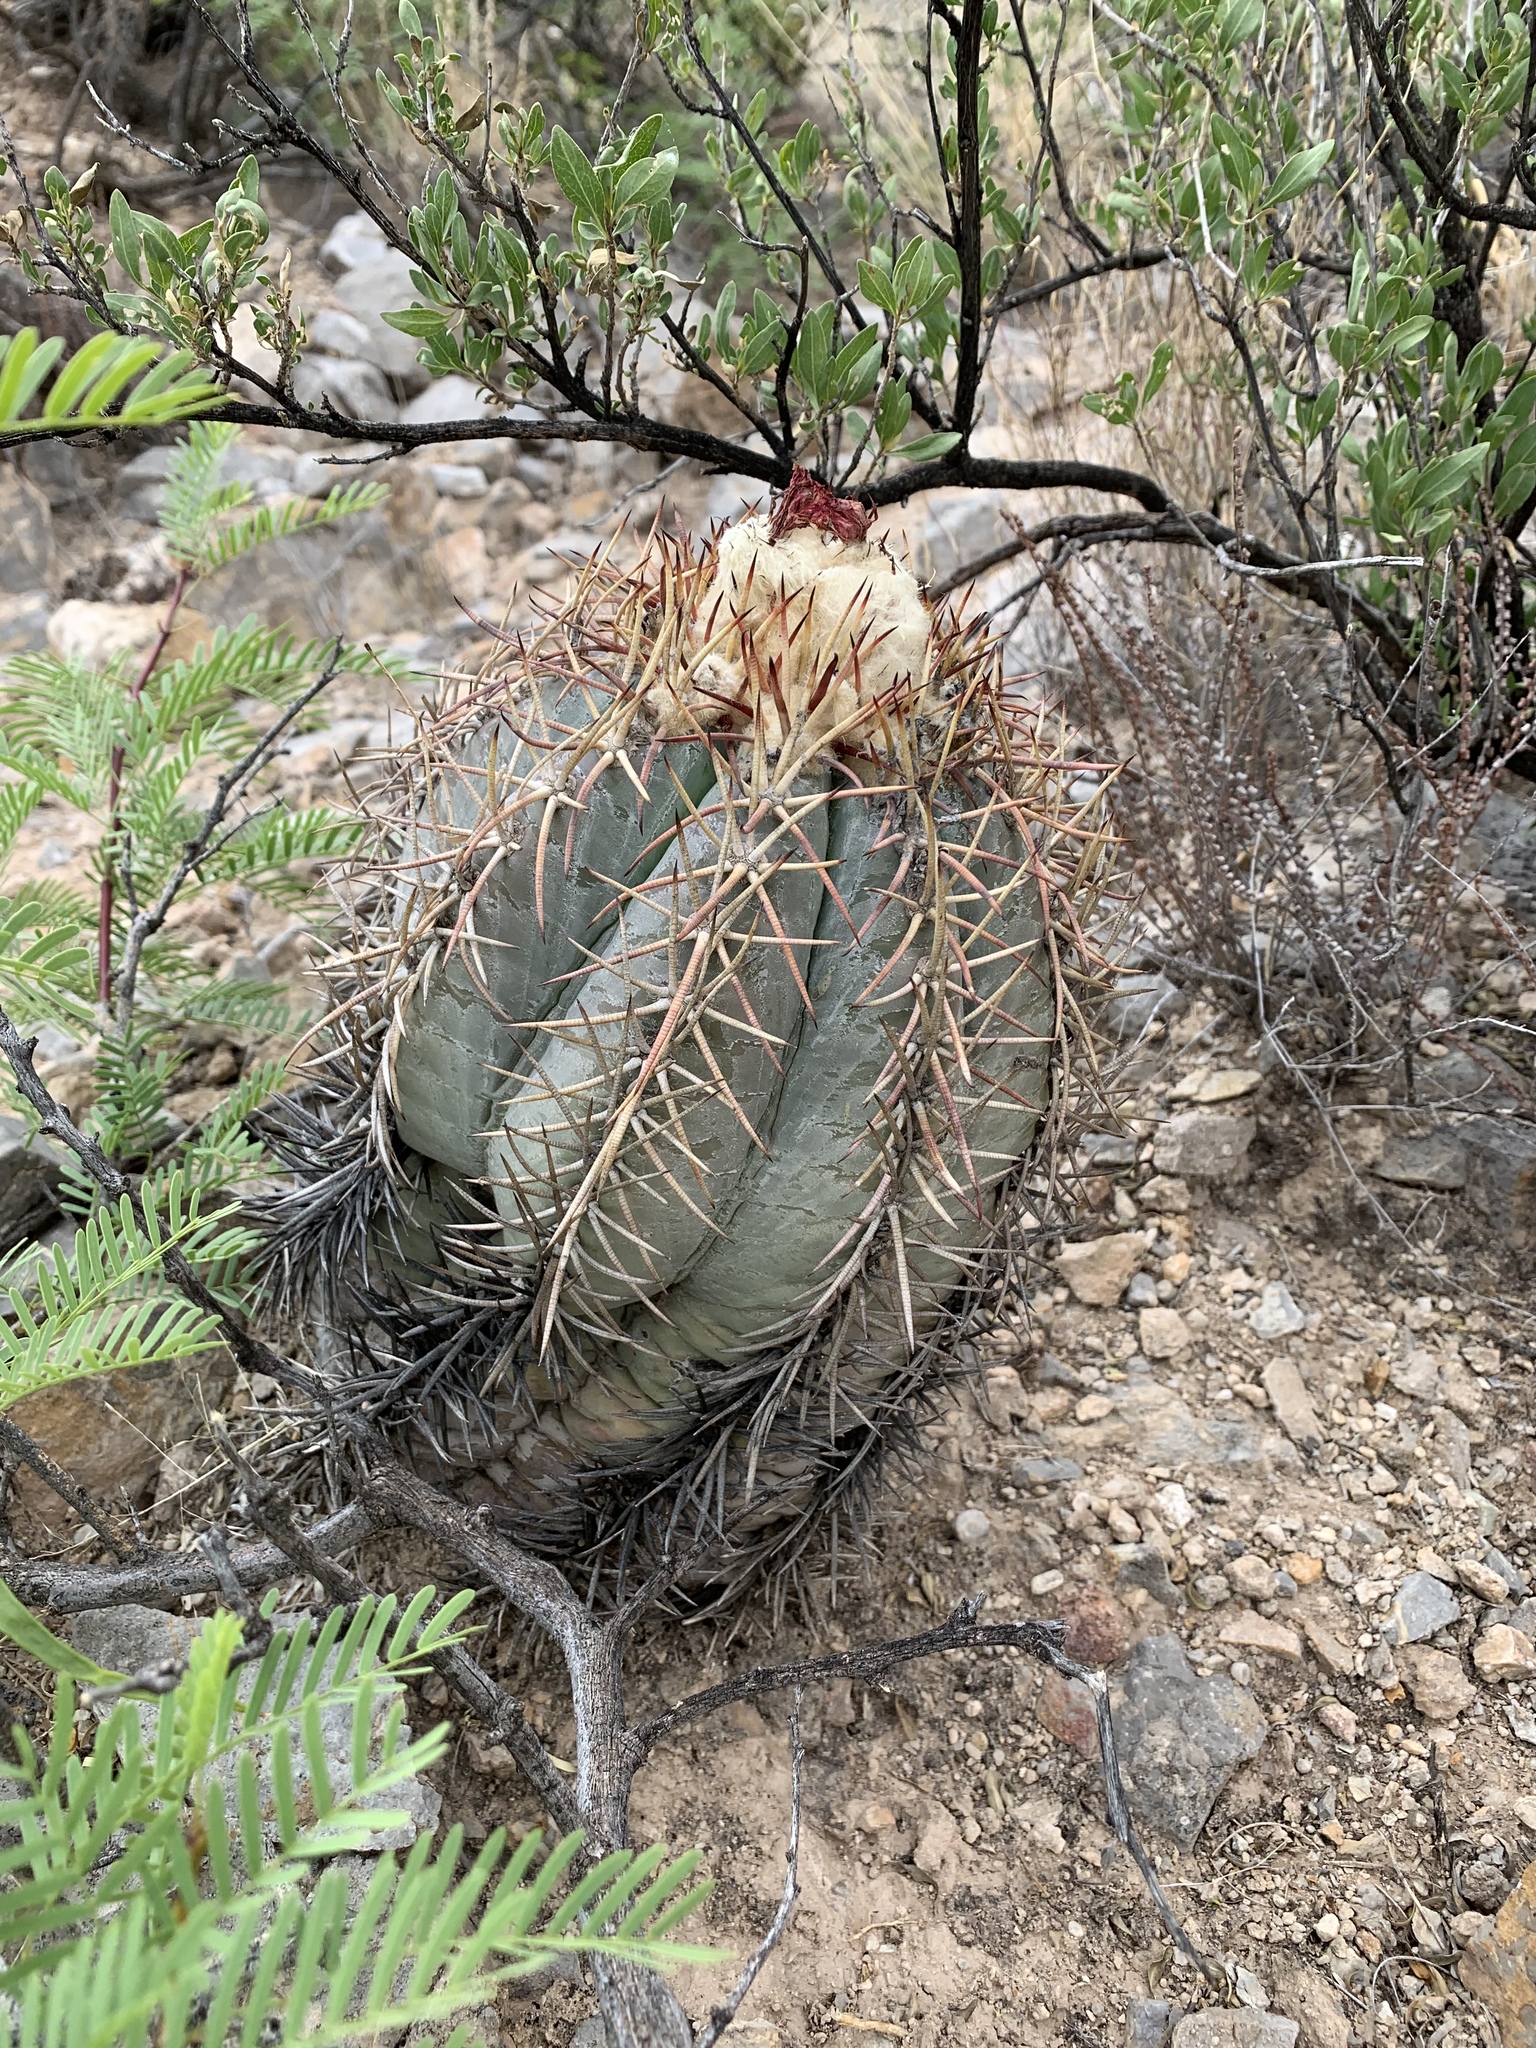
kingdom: Plantae
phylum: Tracheophyta
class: Magnoliopsida
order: Caryophyllales
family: Cactaceae
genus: Echinocactus
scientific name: Echinocactus horizonthalonius
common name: Devilshead
